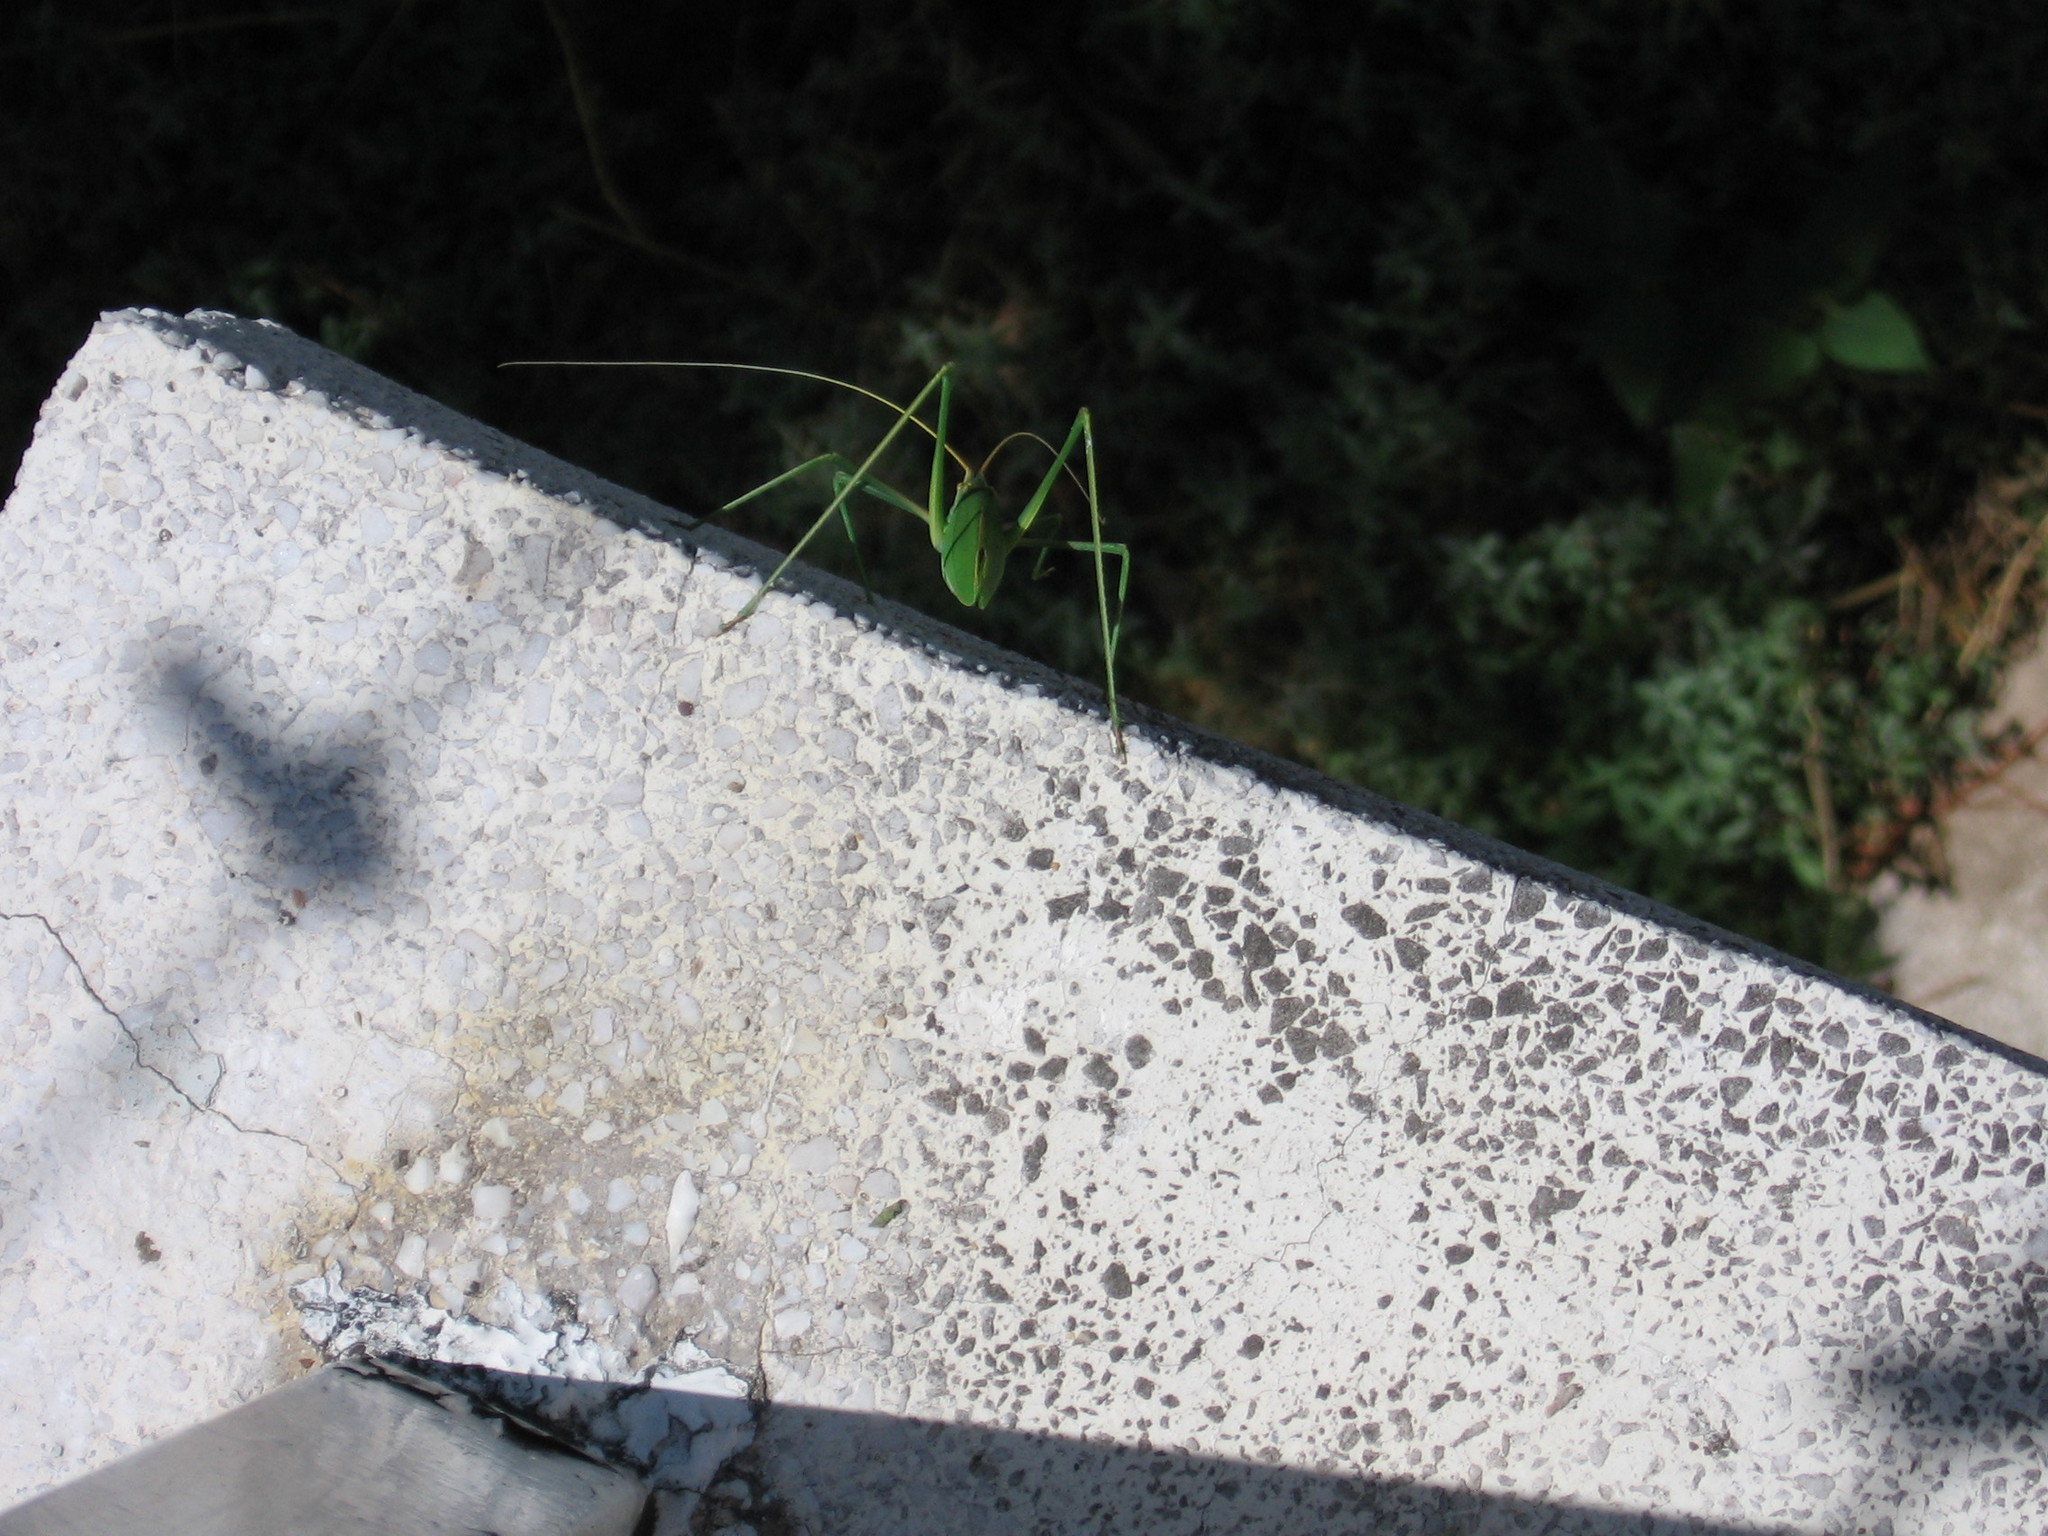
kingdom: Animalia
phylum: Arthropoda
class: Insecta
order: Orthoptera
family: Tettigoniidae
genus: Acrometopa
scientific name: Acrometopa macropoda
